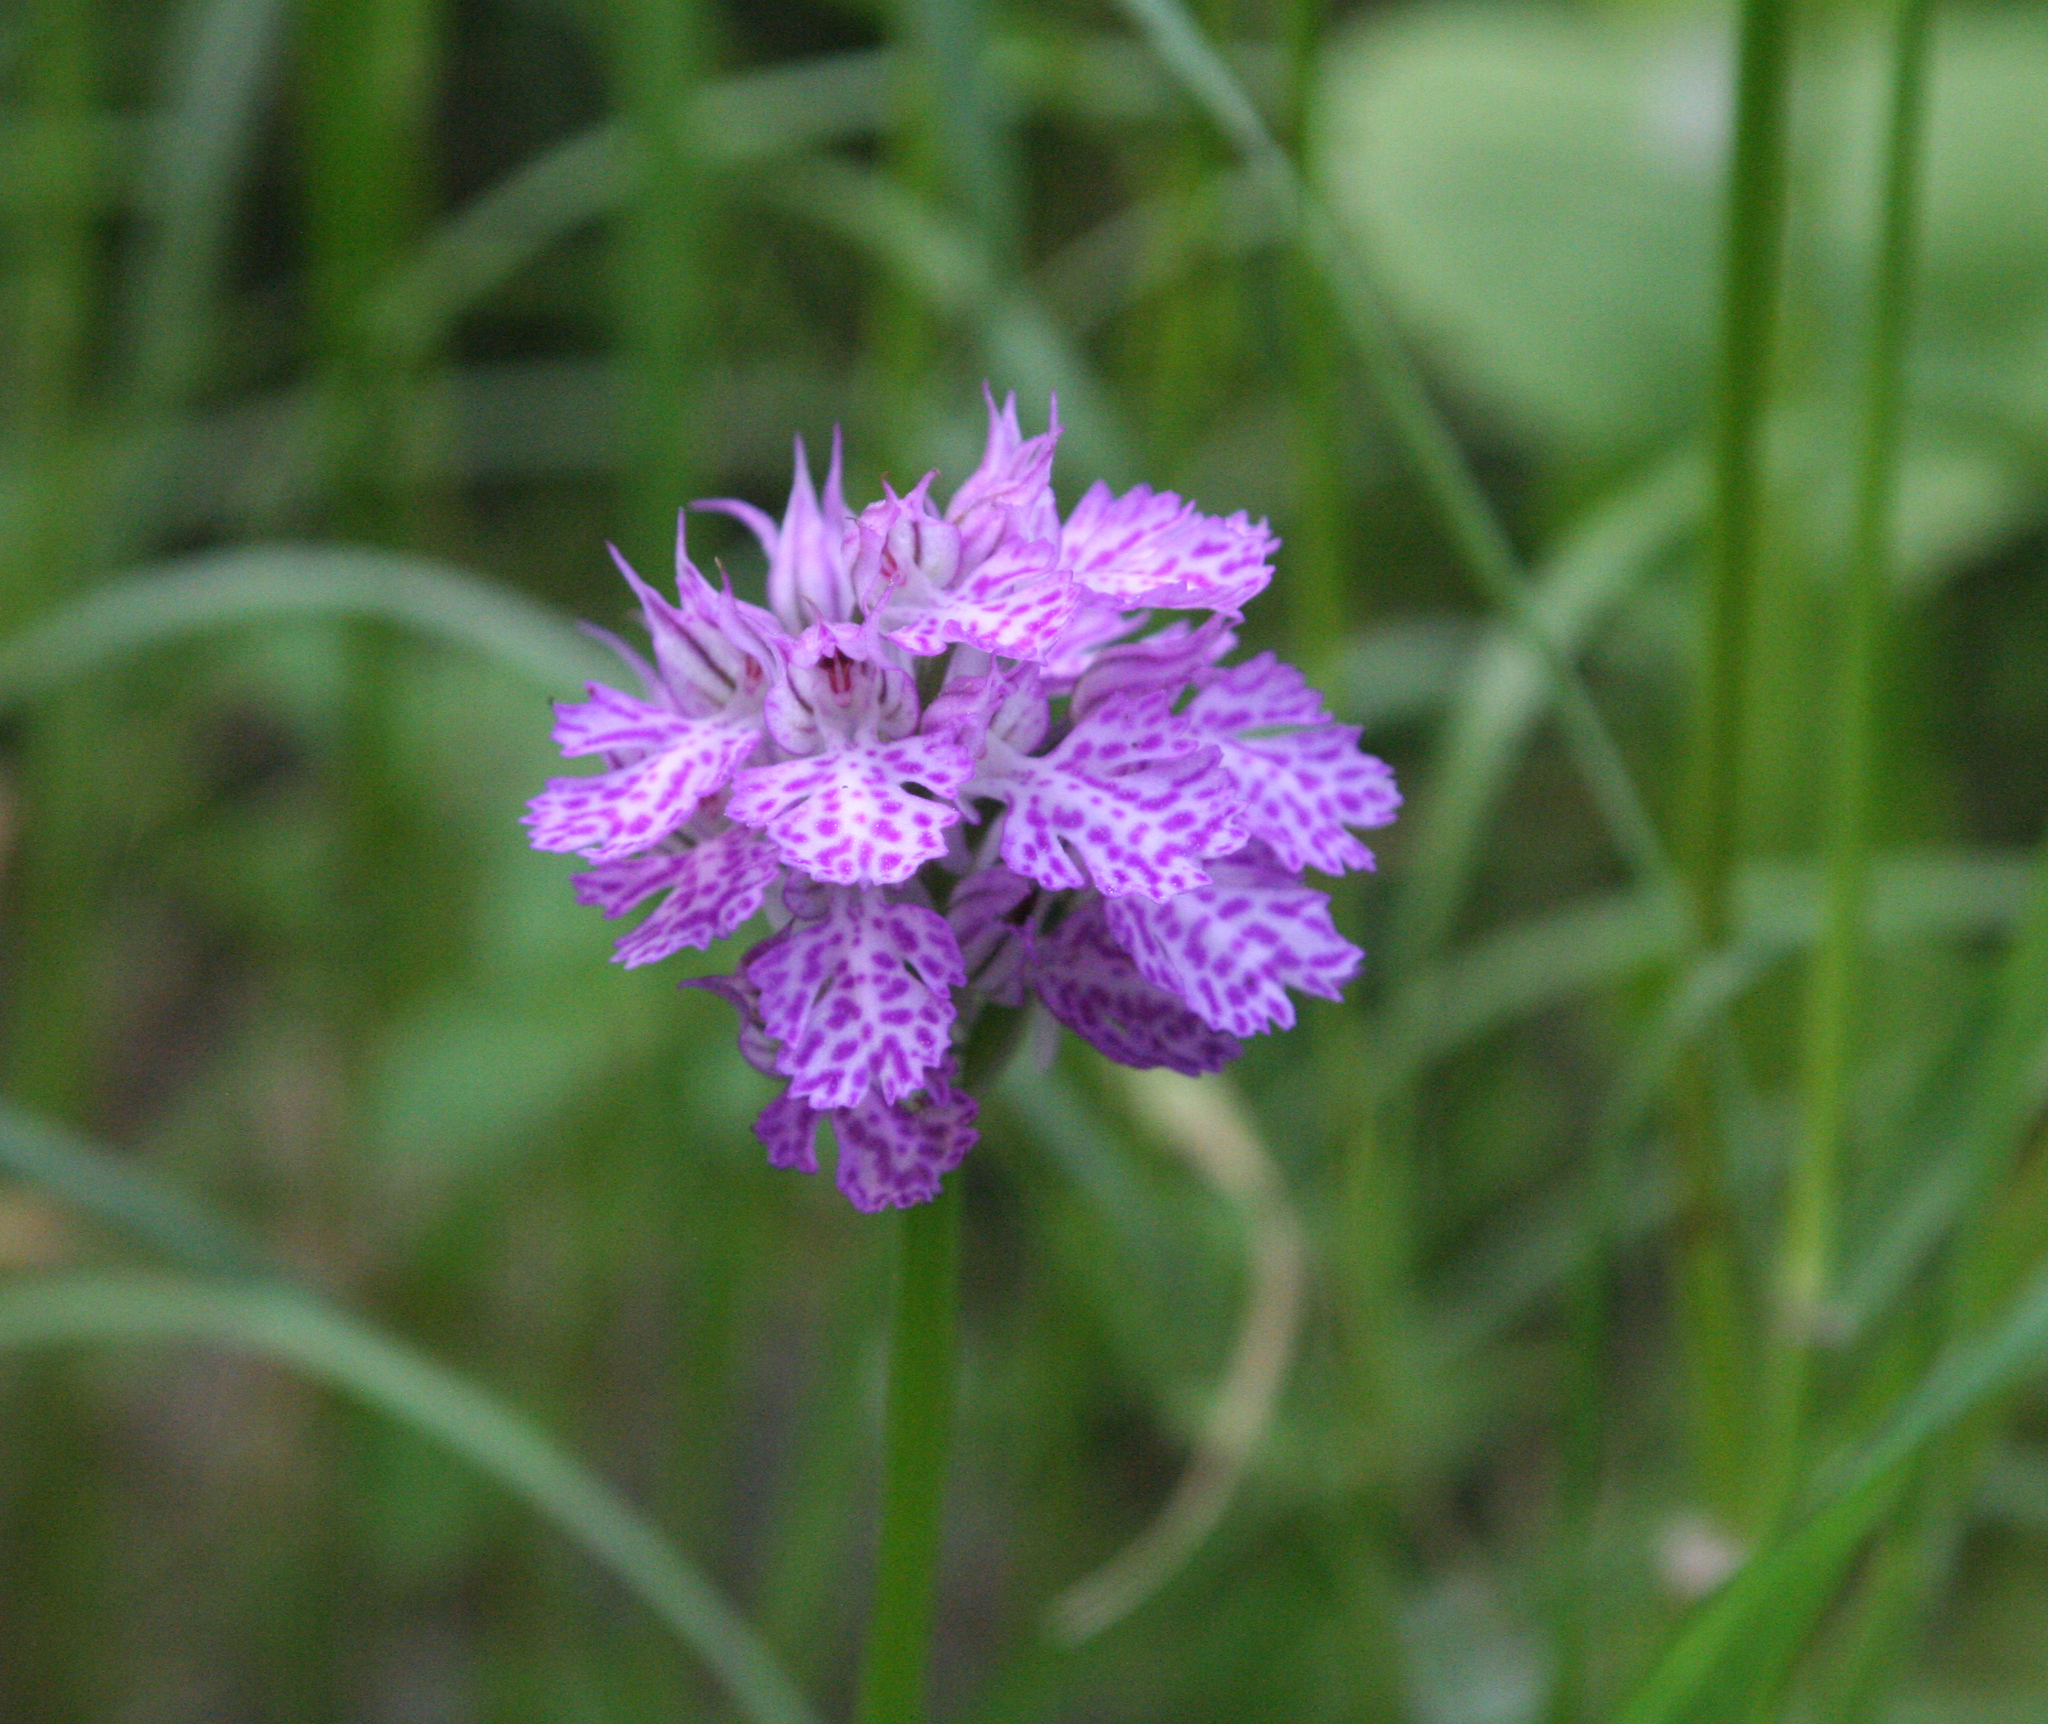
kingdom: Plantae
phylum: Tracheophyta
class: Liliopsida
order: Asparagales
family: Orchidaceae
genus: Neotinea
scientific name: Neotinea tridentata
